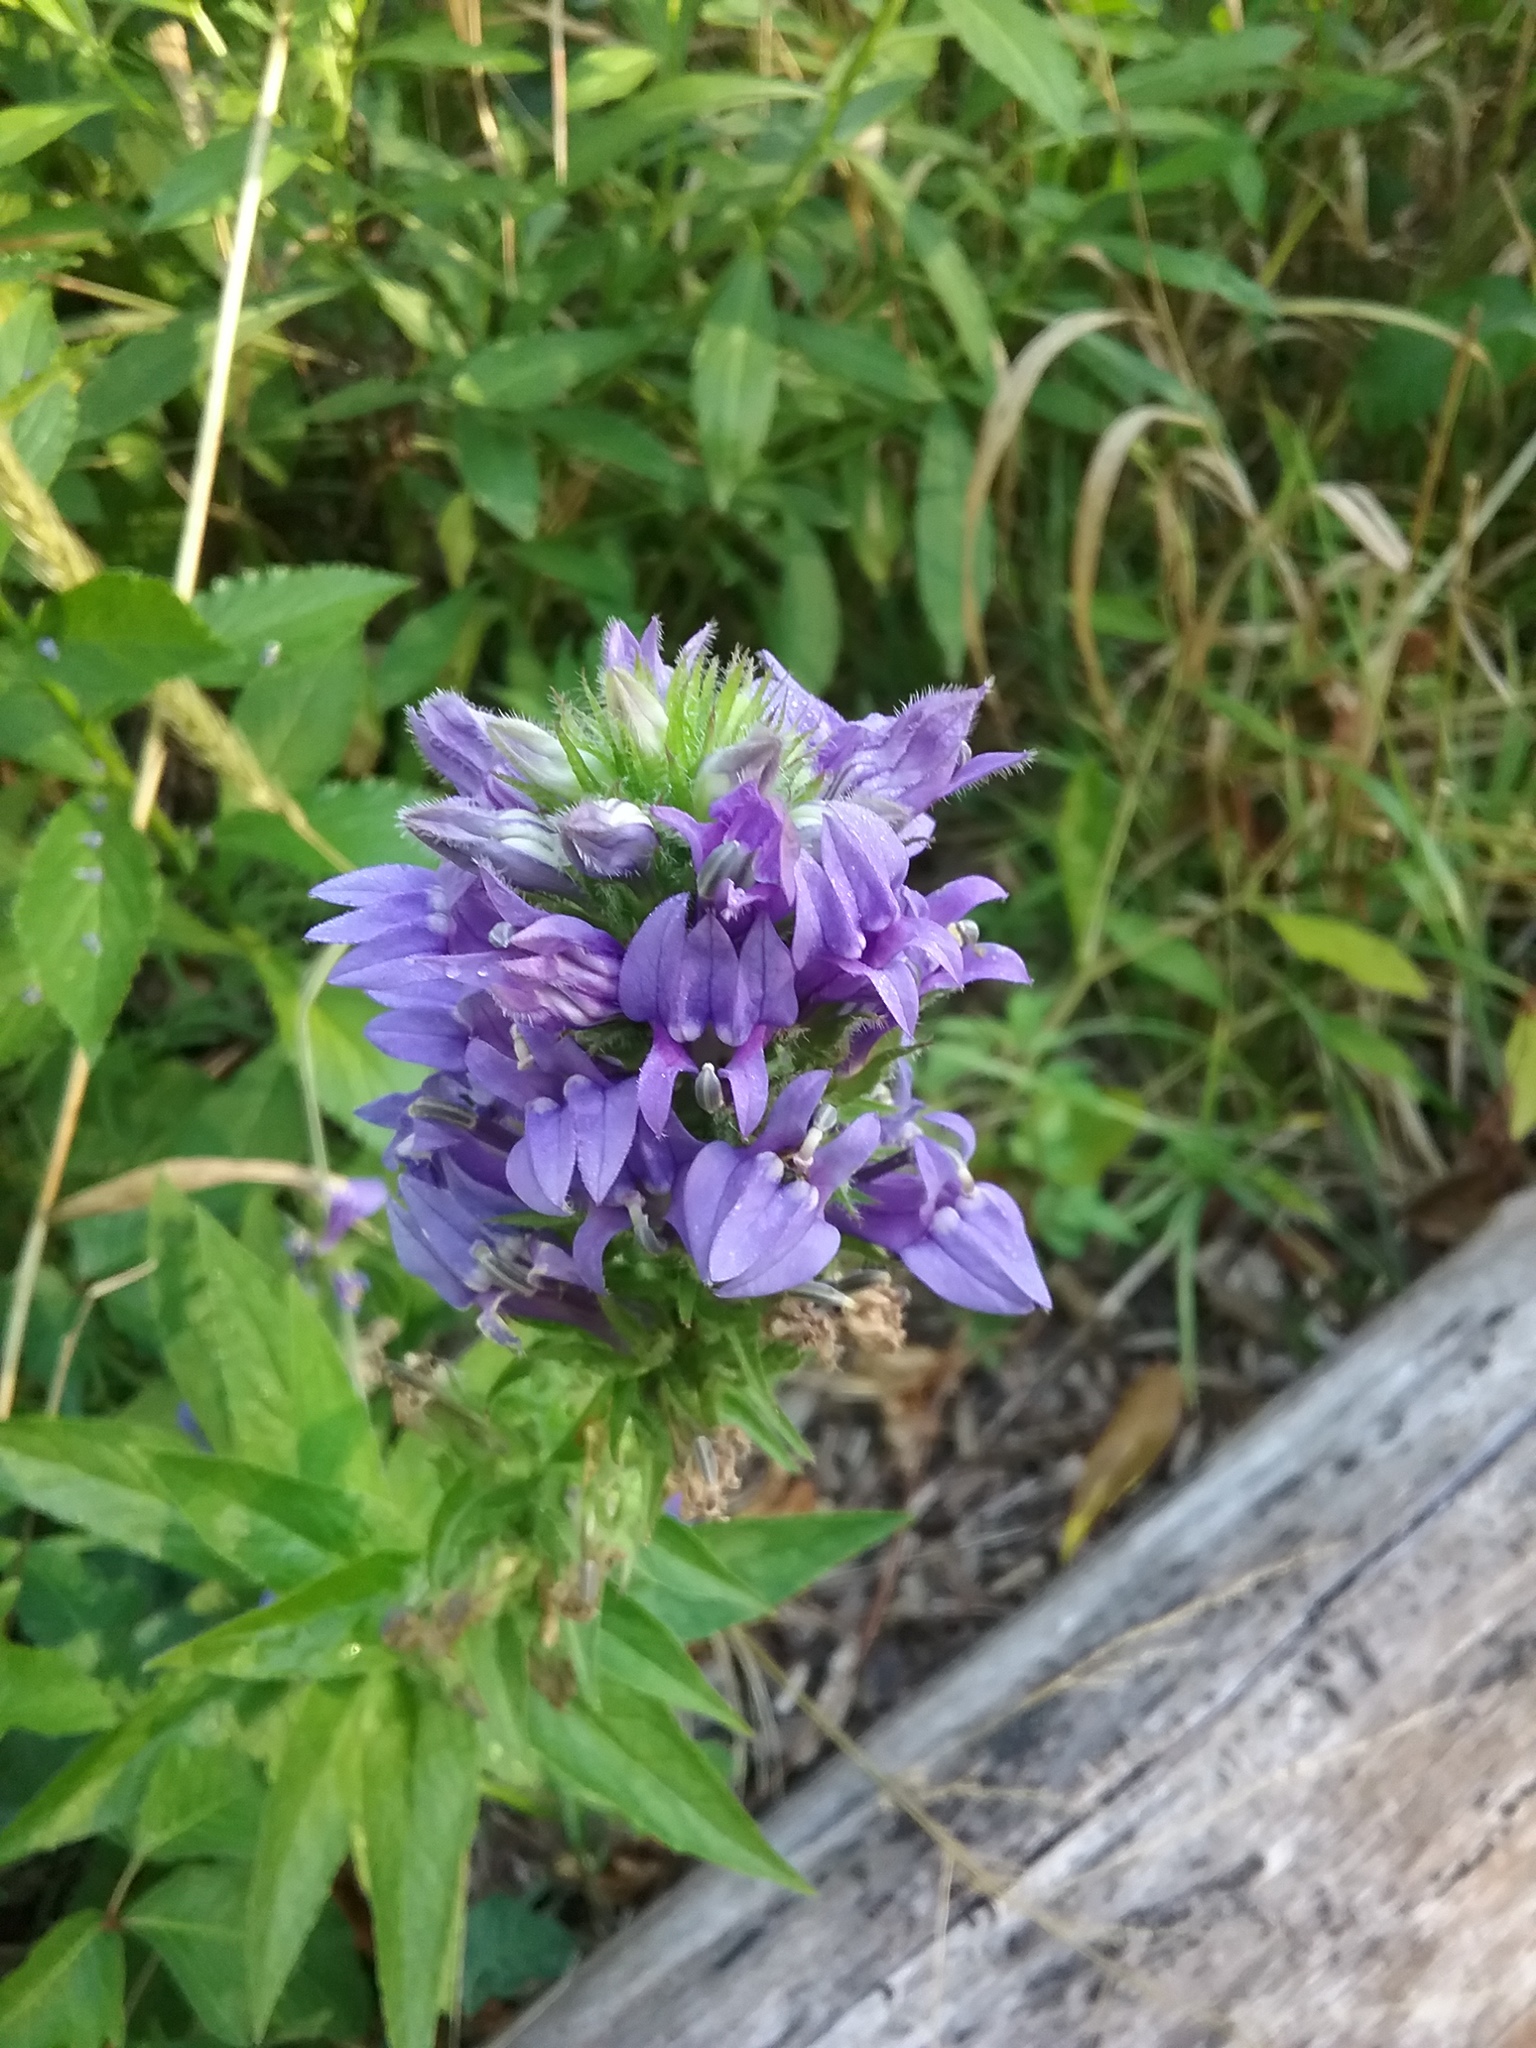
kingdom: Plantae
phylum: Tracheophyta
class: Magnoliopsida
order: Asterales
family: Campanulaceae
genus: Lobelia
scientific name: Lobelia siphilitica
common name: Great lobelia
